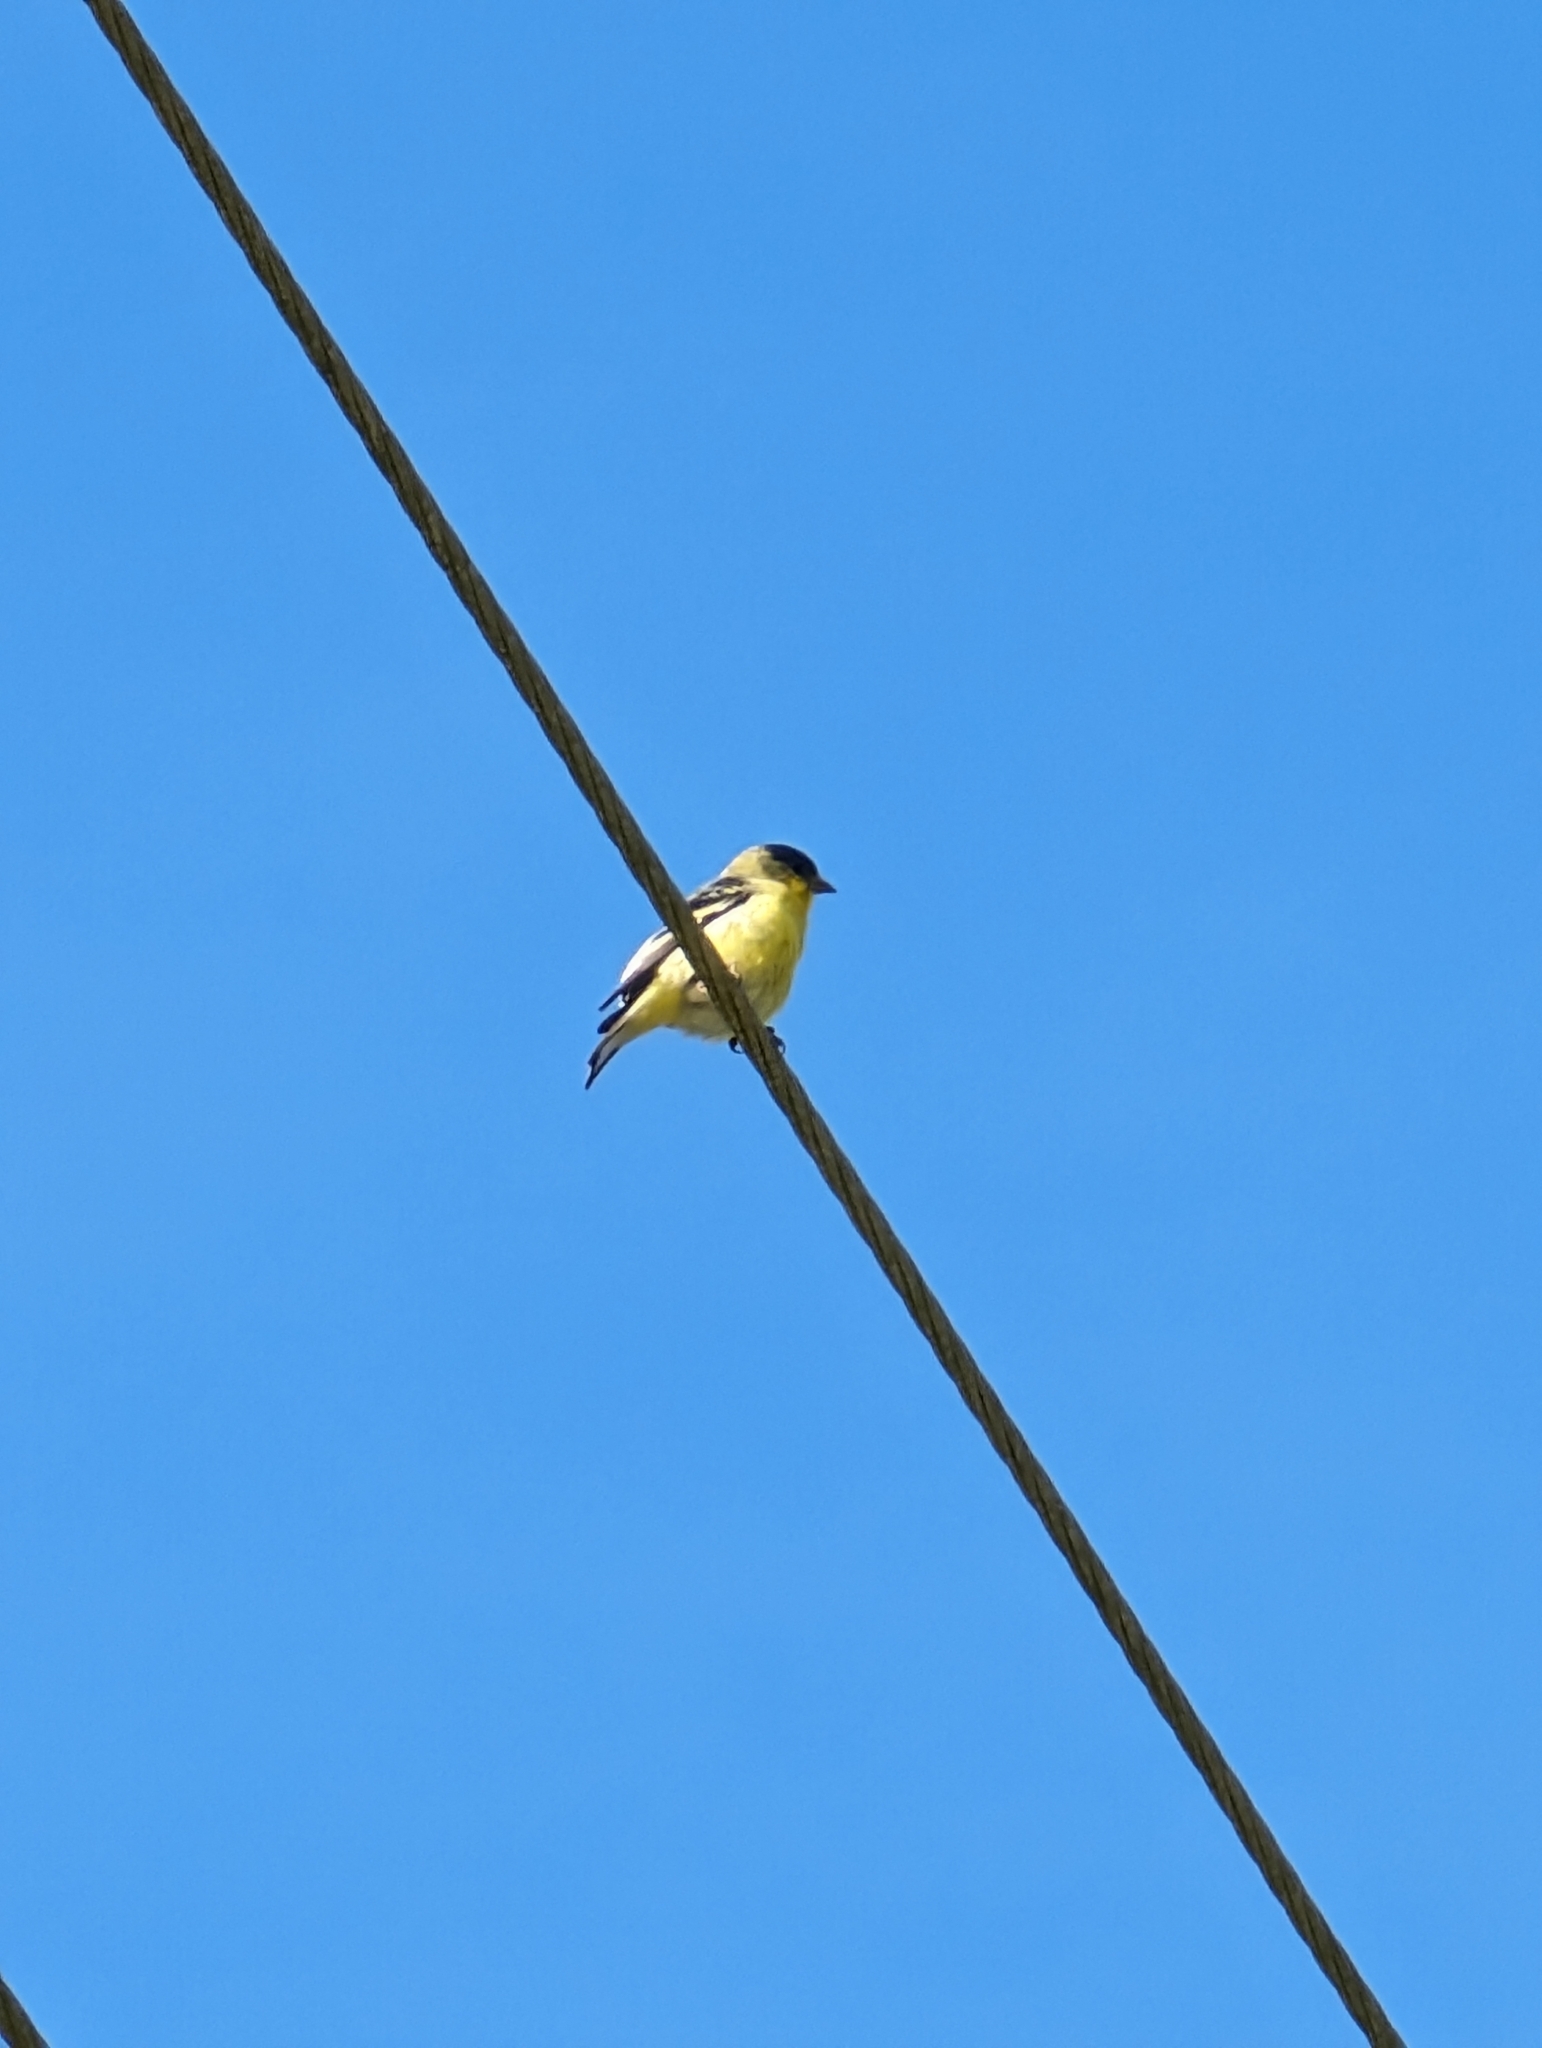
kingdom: Animalia
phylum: Chordata
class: Aves
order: Passeriformes
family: Fringillidae
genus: Spinus
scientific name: Spinus psaltria
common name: Lesser goldfinch
